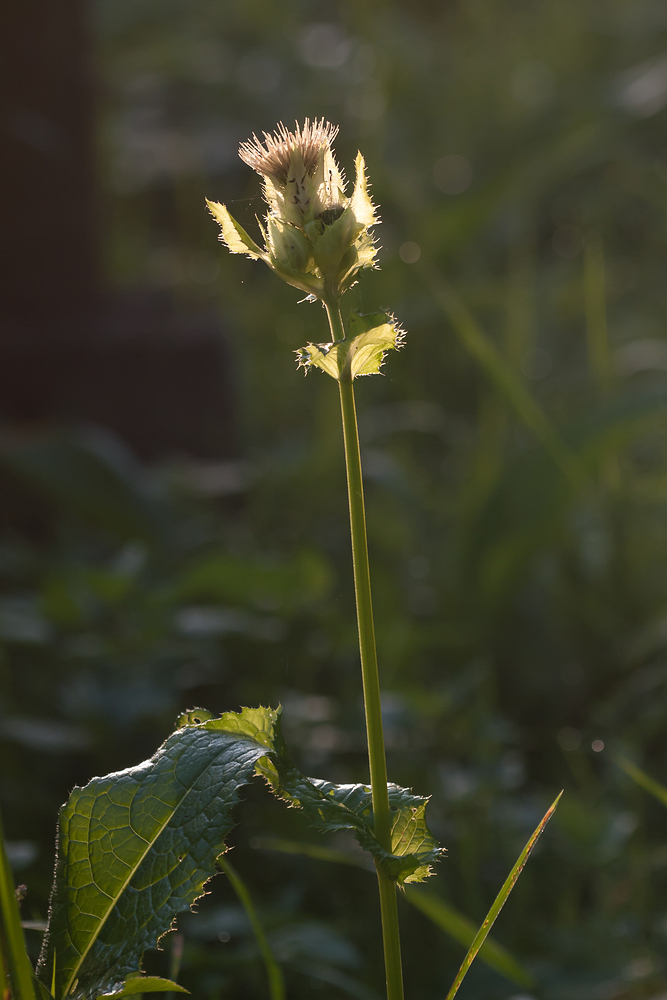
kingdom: Plantae
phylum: Tracheophyta
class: Magnoliopsida
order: Asterales
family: Asteraceae
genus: Cirsium
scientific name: Cirsium oleraceum
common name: Cabbage thistle
